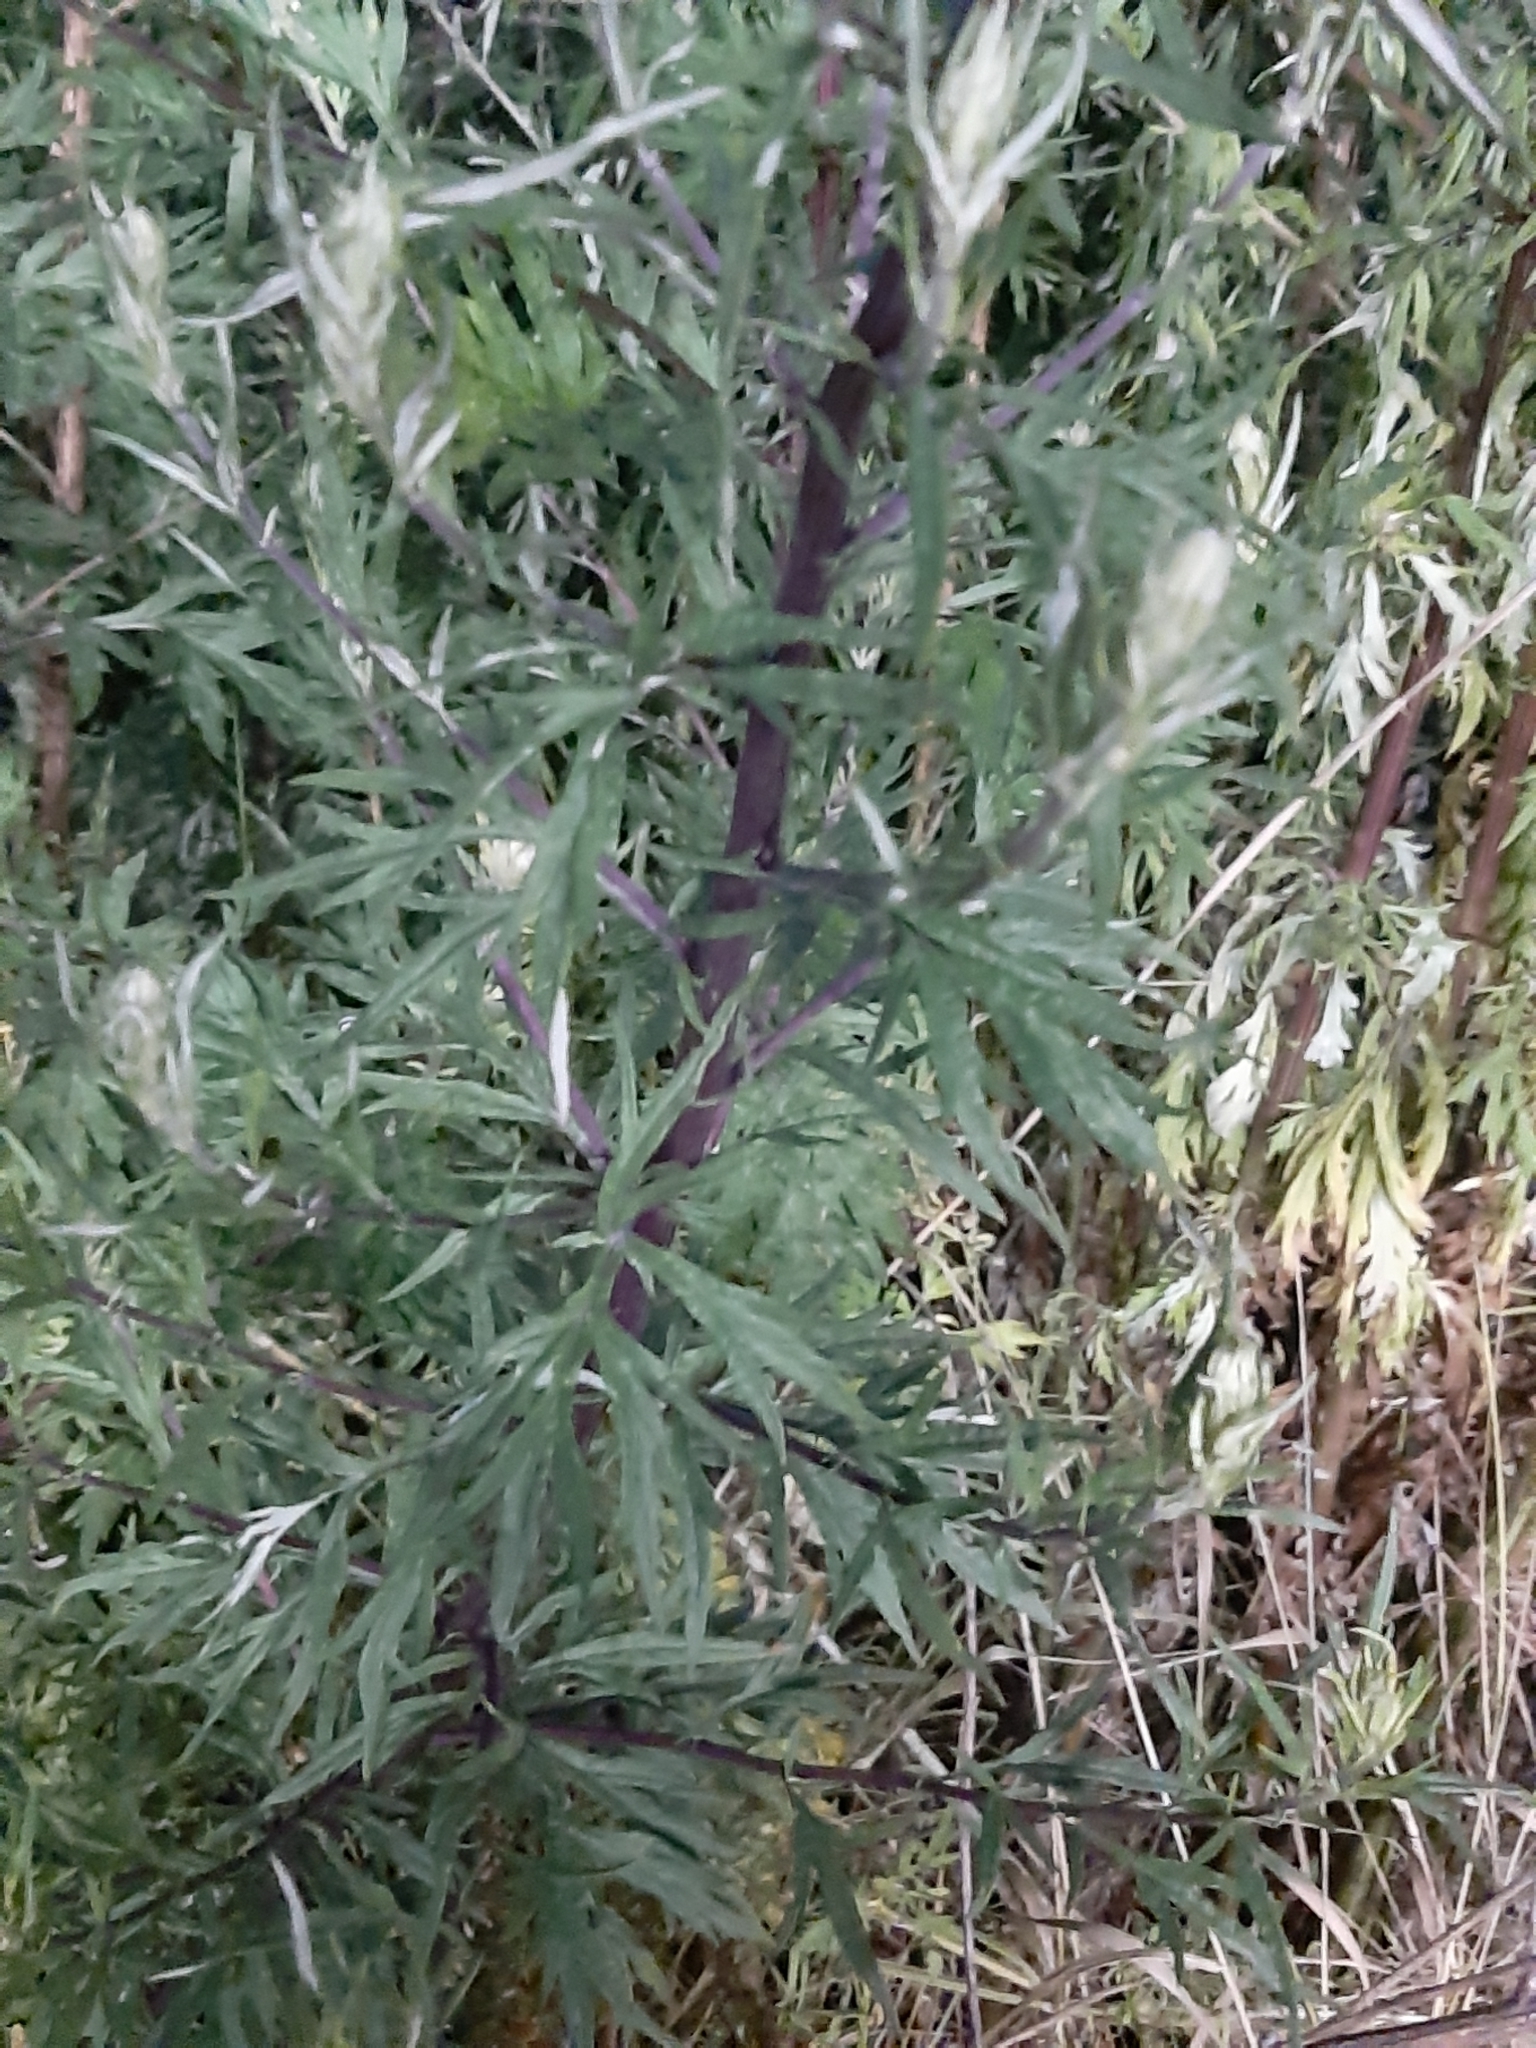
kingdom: Plantae
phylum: Tracheophyta
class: Magnoliopsida
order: Asterales
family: Asteraceae
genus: Artemisia
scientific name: Artemisia vulgaris
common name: Mugwort
